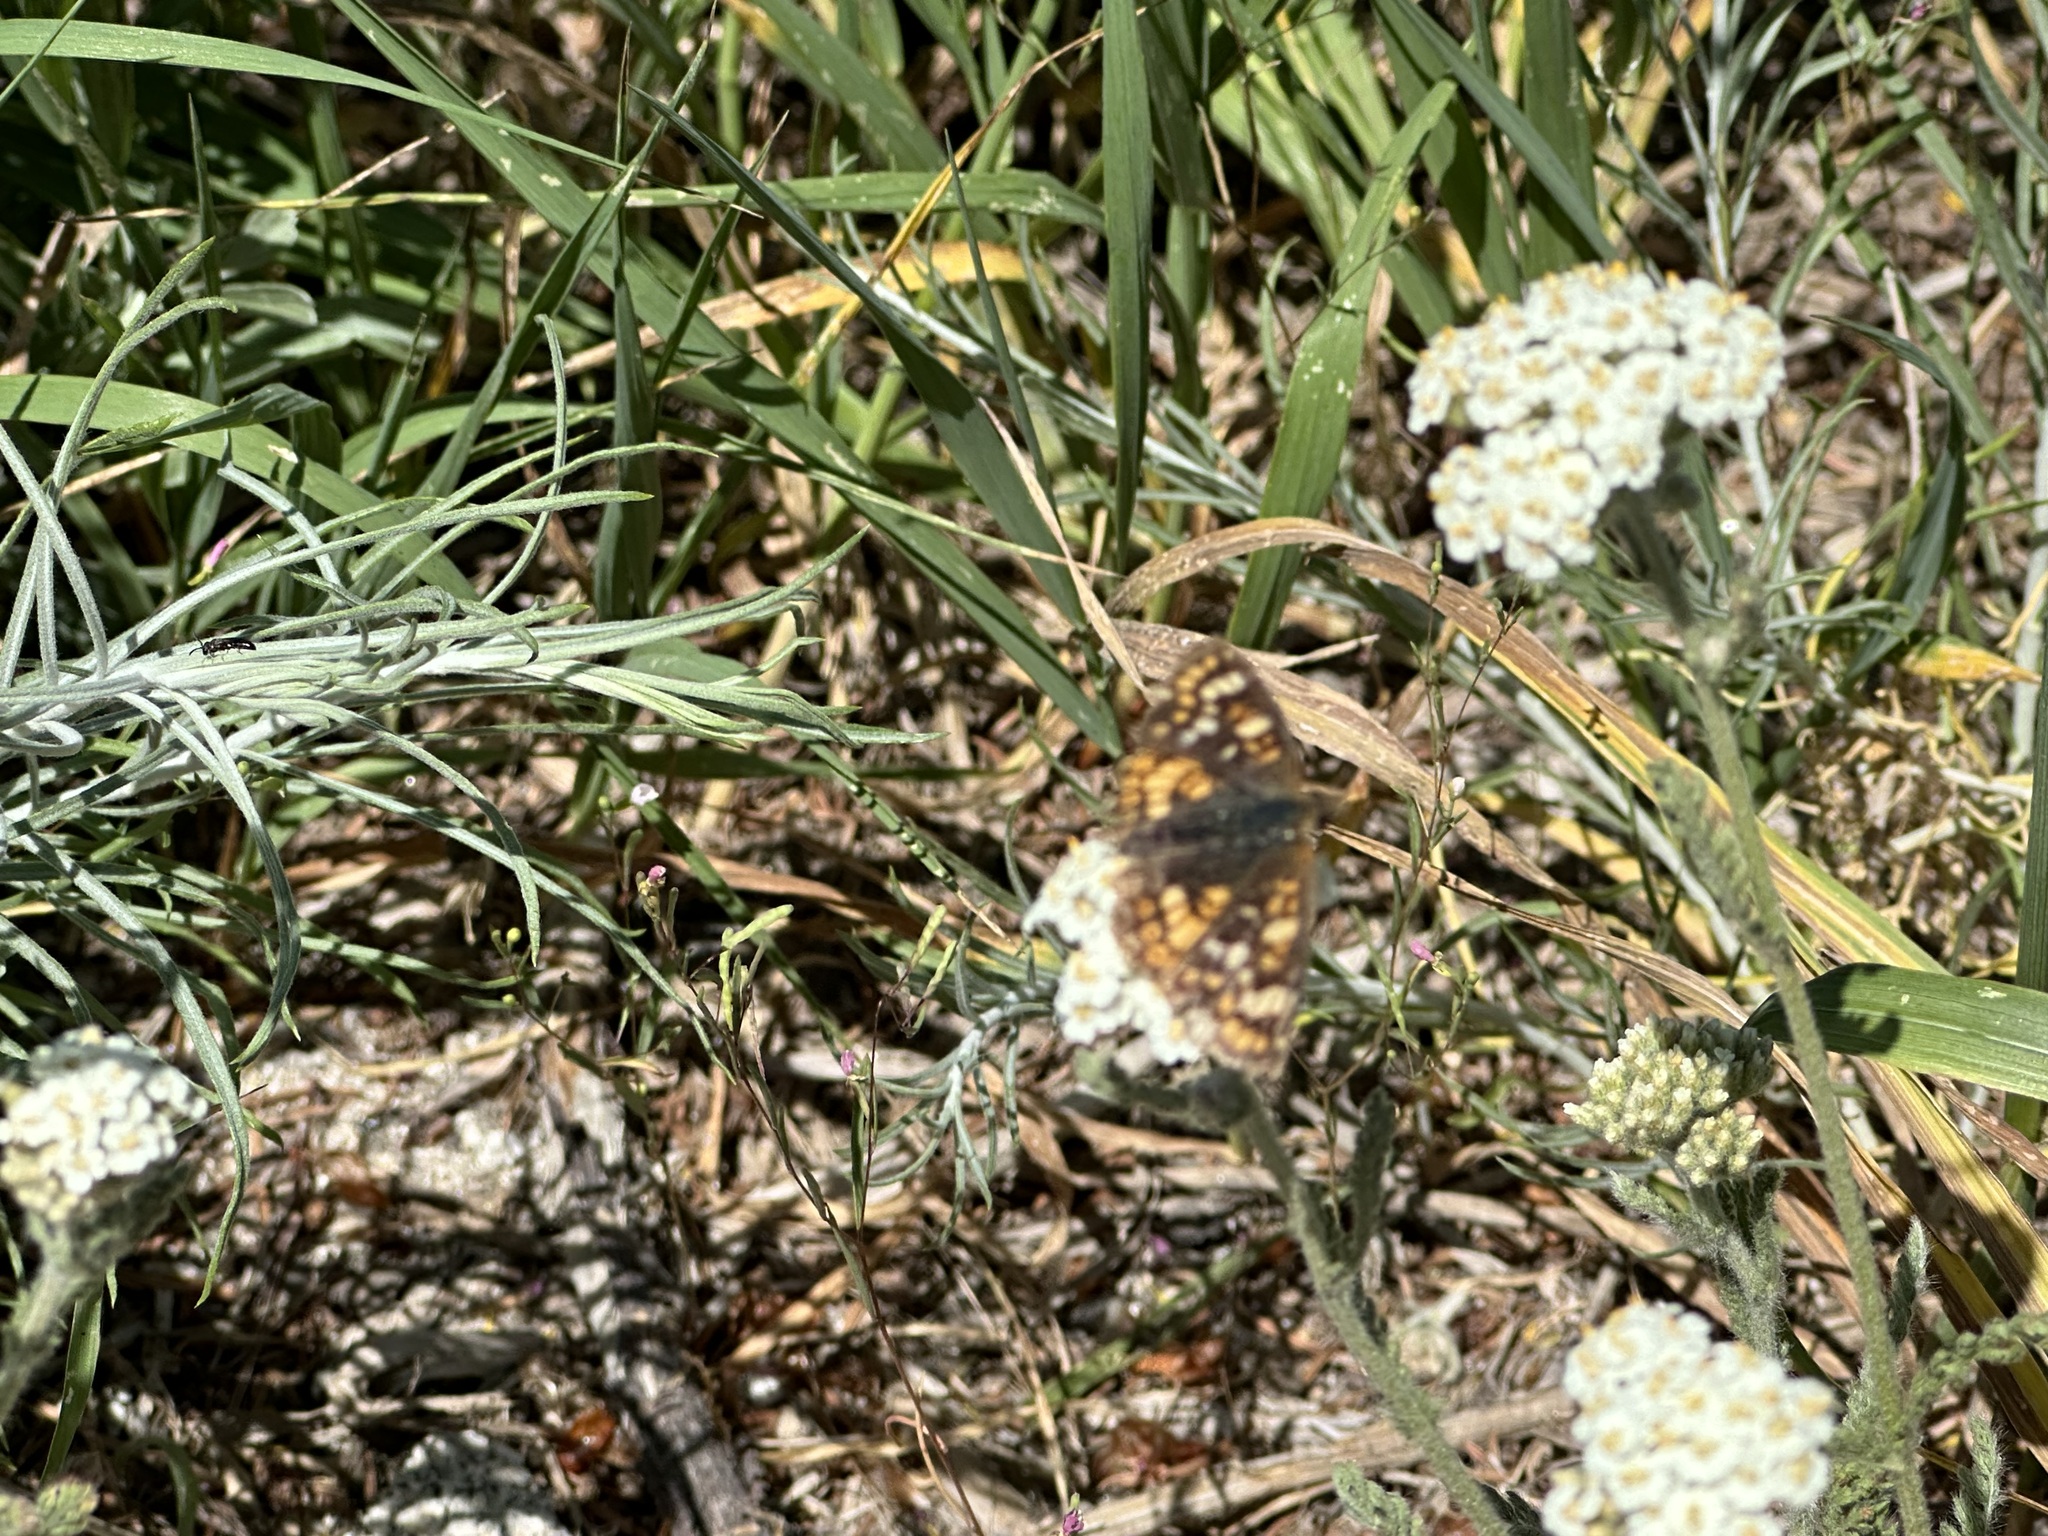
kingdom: Animalia
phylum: Arthropoda
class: Insecta
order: Lepidoptera
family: Nymphalidae
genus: Phyciodes
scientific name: Phyciodes tharos
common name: Pearl crescent
